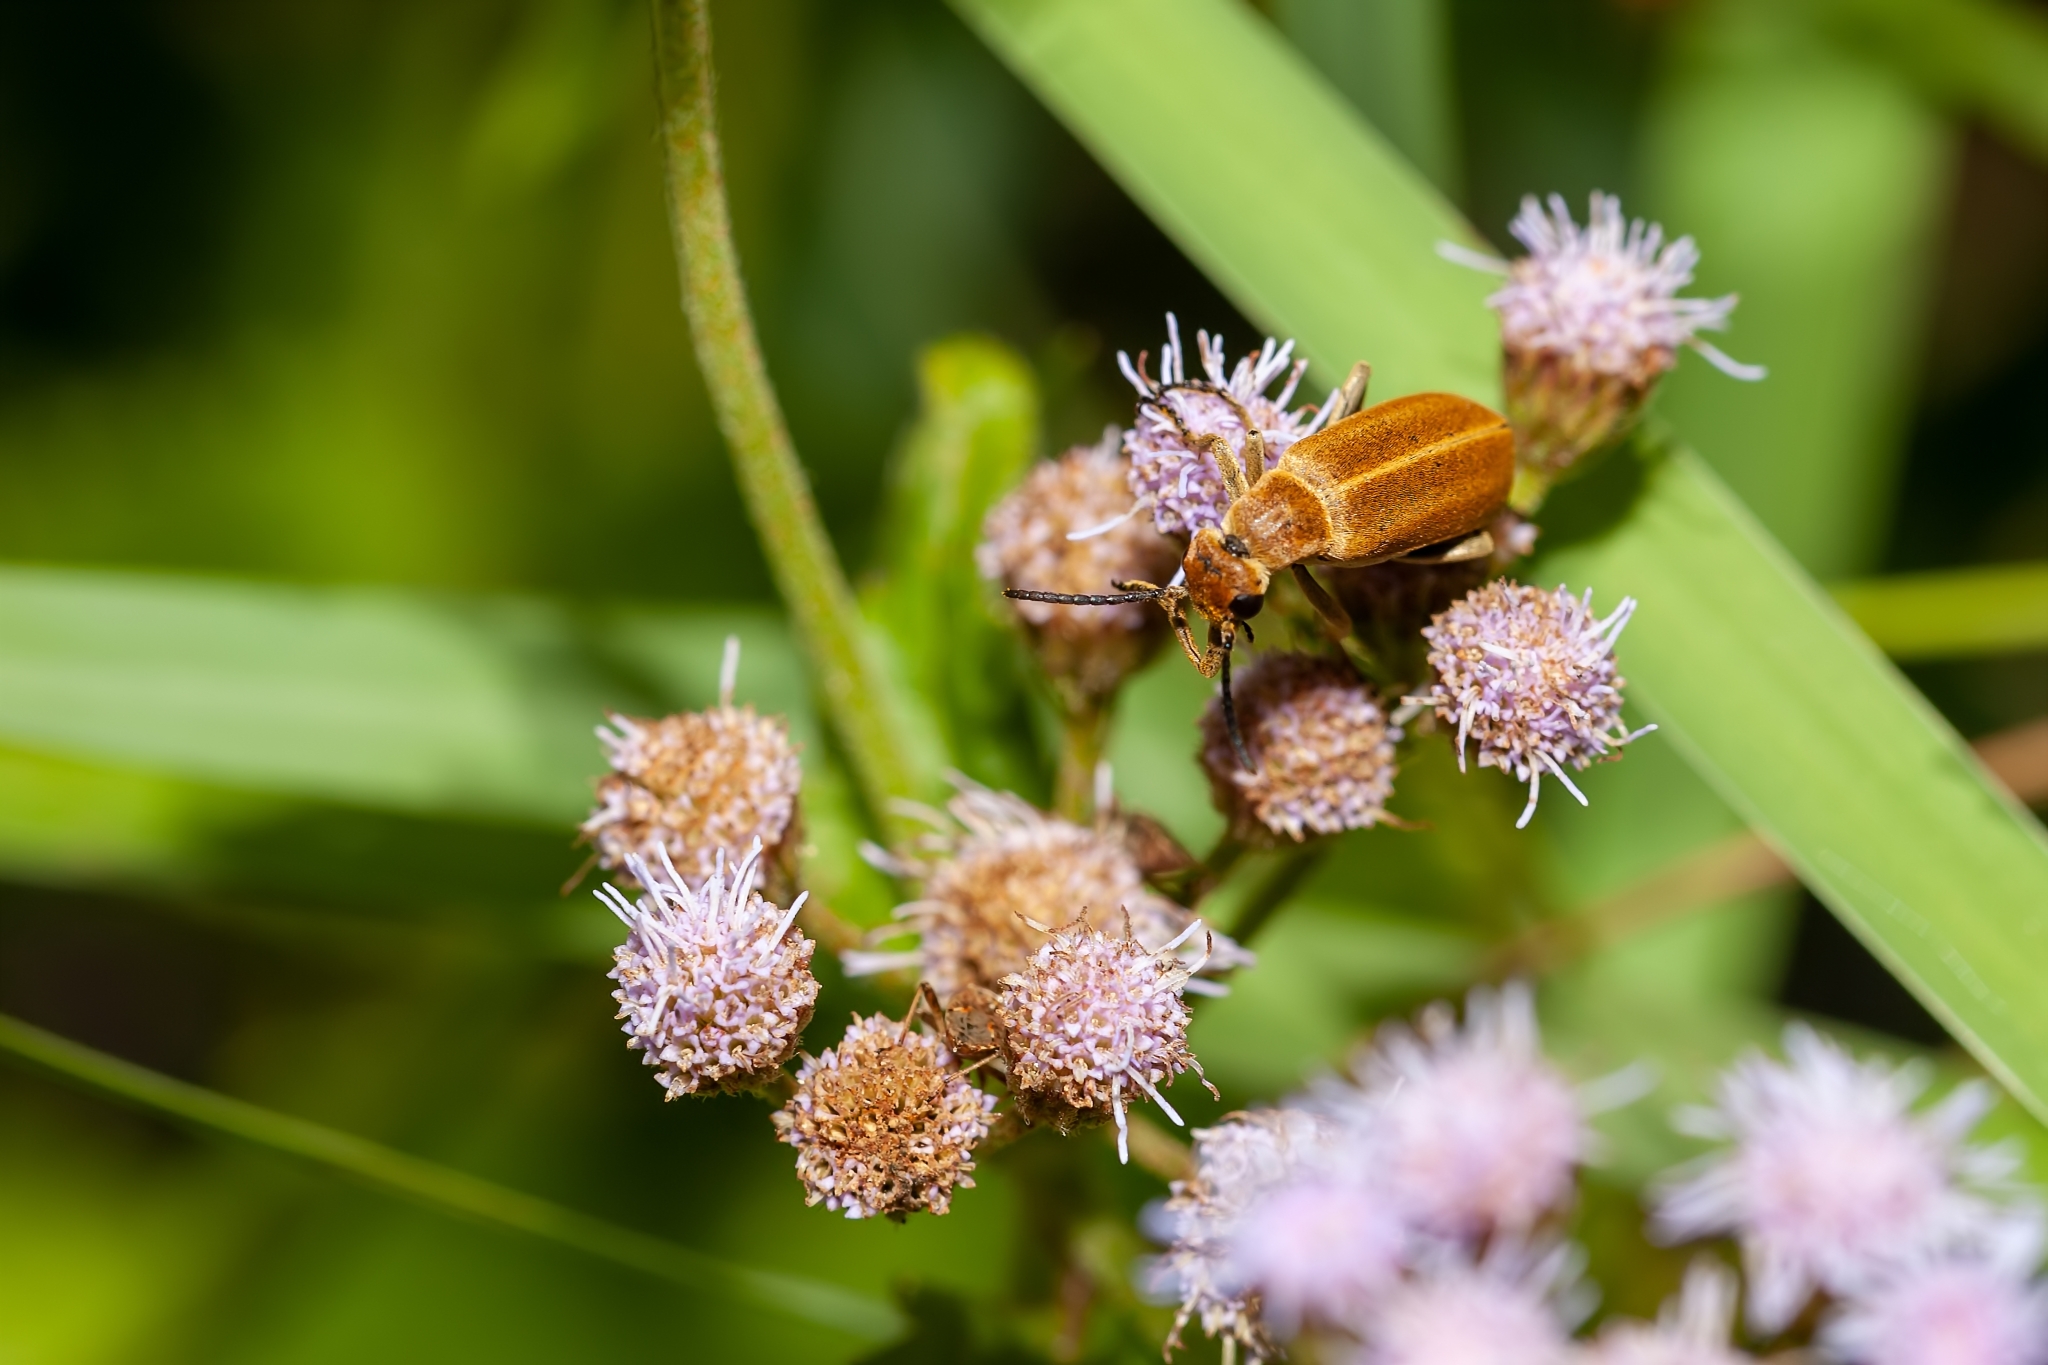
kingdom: Animalia
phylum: Arthropoda
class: Insecta
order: Coleoptera
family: Meloidae
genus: Epicauta
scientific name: Epicauta strigosa
